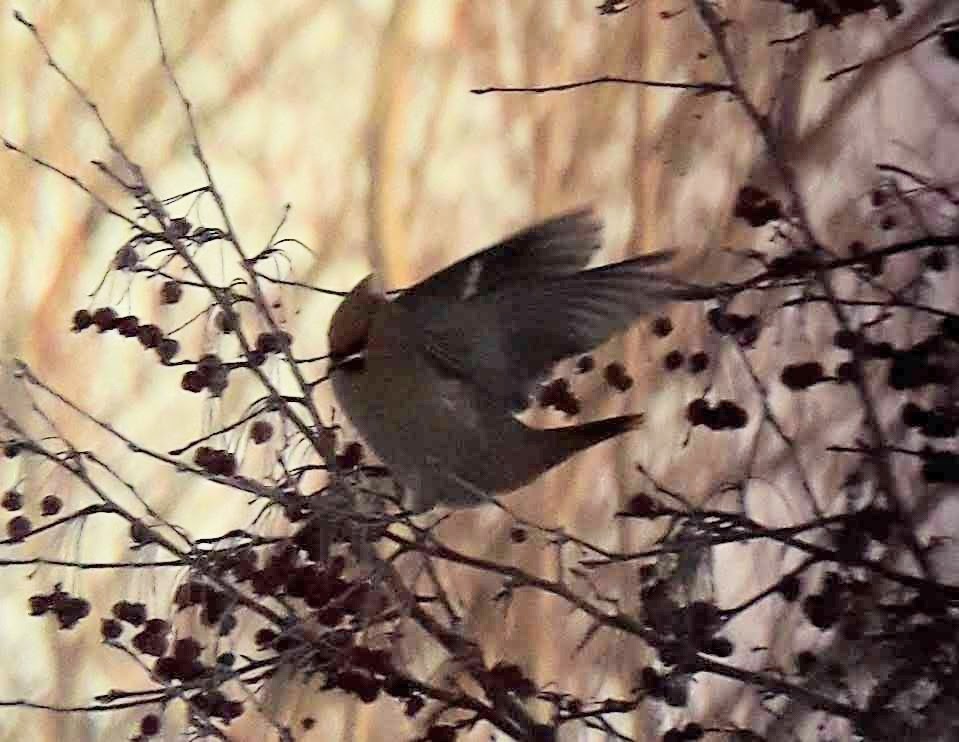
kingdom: Animalia
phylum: Chordata
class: Aves
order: Passeriformes
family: Bombycillidae
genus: Bombycilla
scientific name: Bombycilla garrulus
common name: Bohemian waxwing
